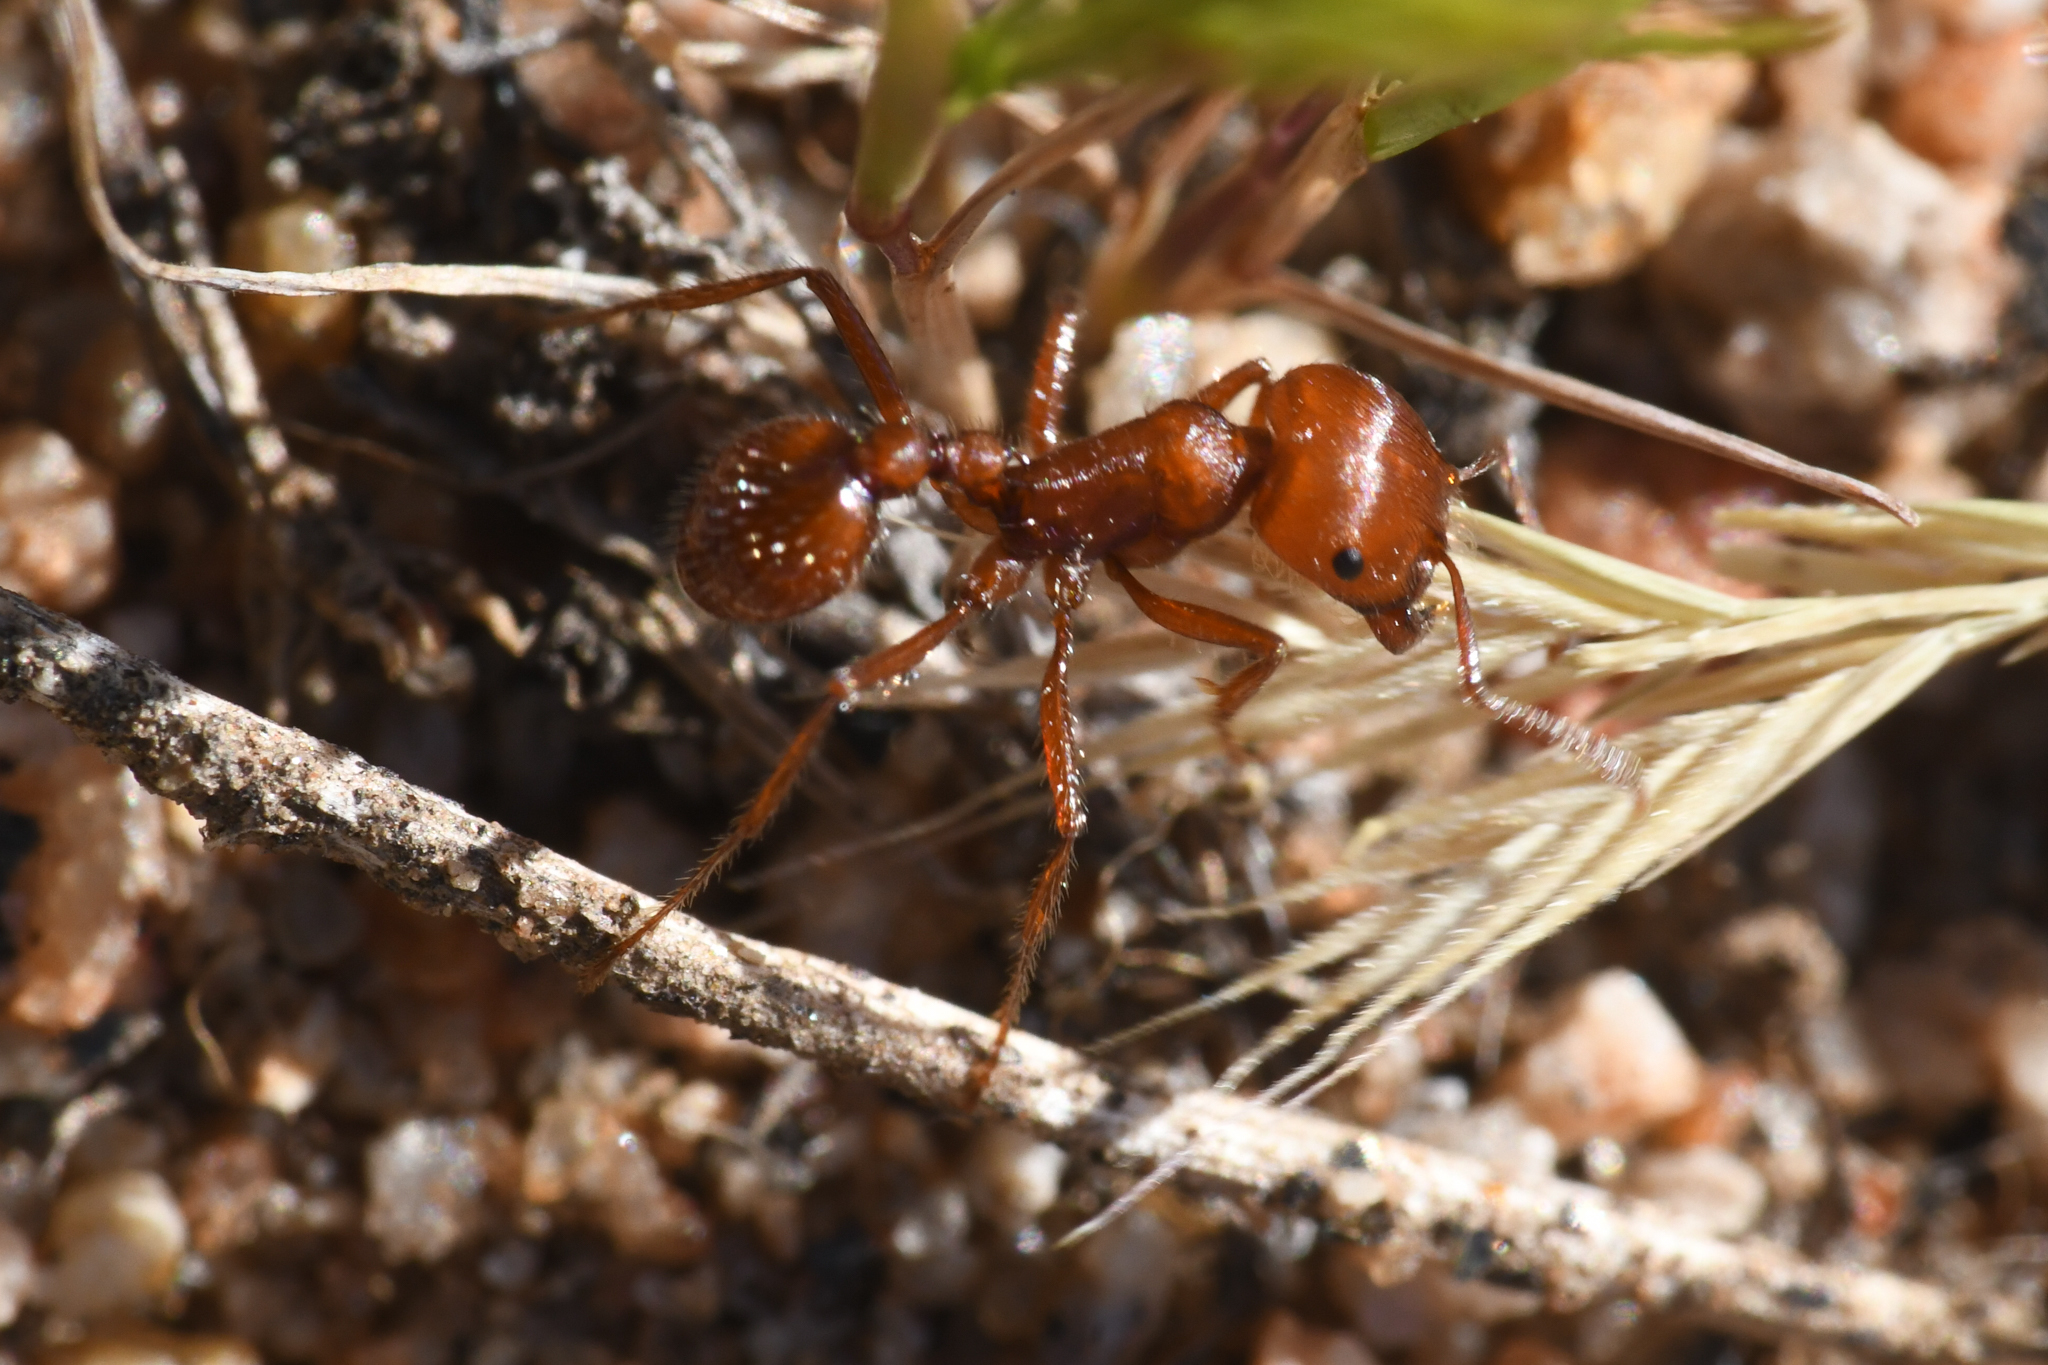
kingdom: Animalia
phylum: Arthropoda
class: Insecta
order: Hymenoptera
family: Formicidae
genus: Pogonomyrmex
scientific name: Pogonomyrmex subnitidus
